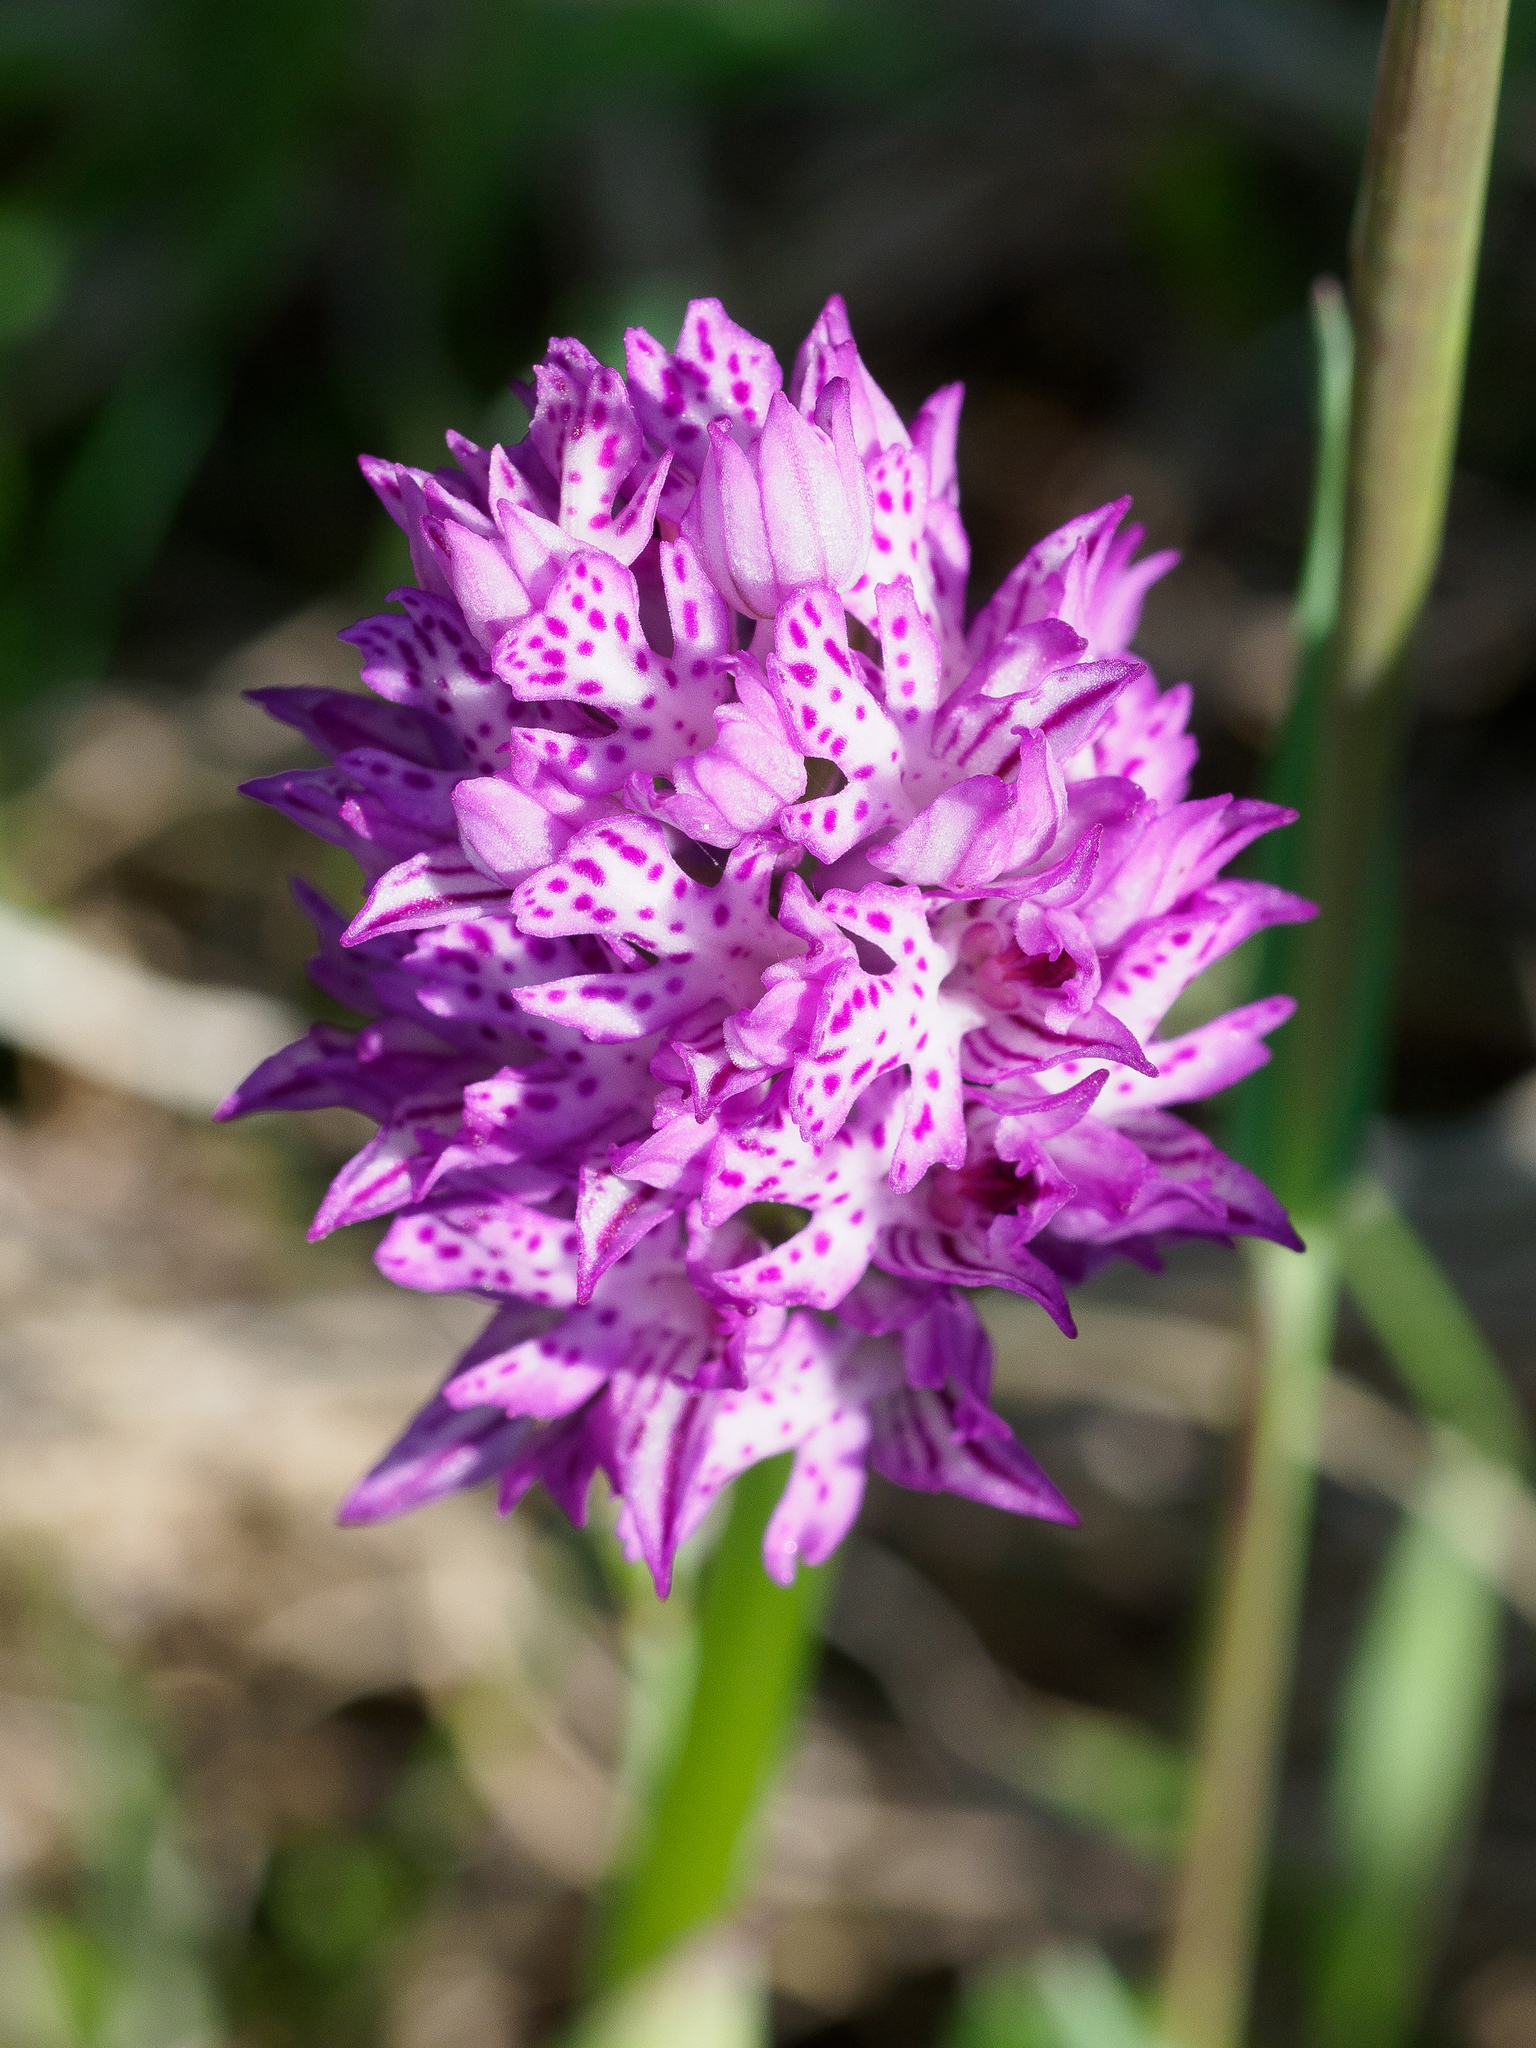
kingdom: Plantae
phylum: Tracheophyta
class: Liliopsida
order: Asparagales
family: Orchidaceae
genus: Neotinea
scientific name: Neotinea tridentata
